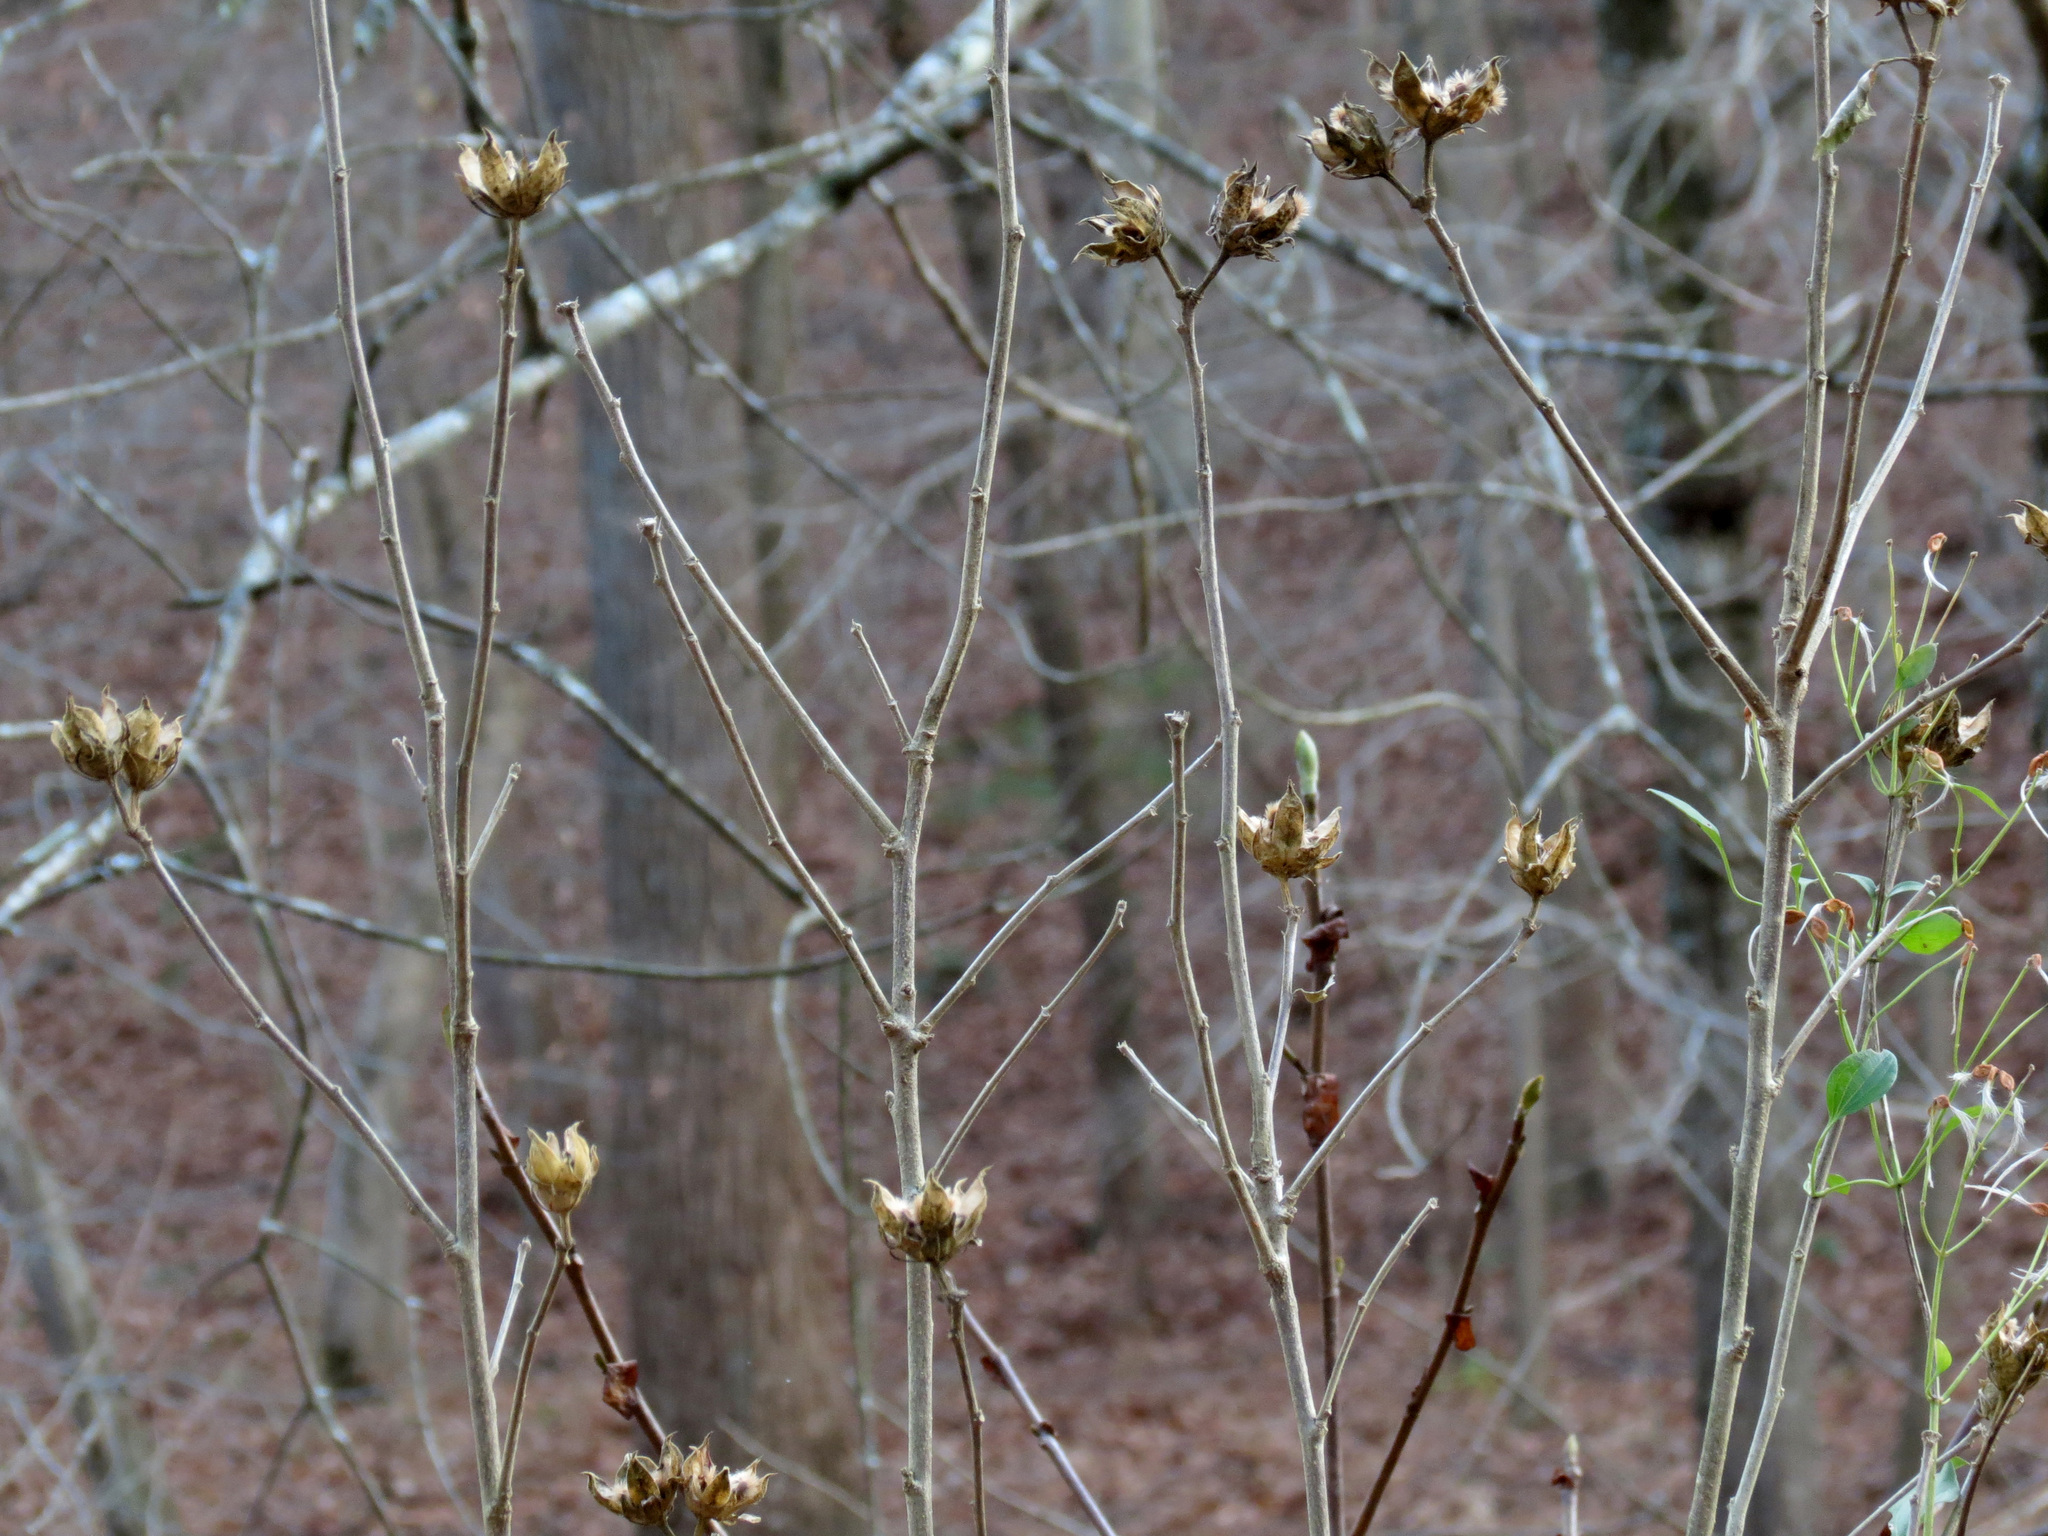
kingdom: Plantae
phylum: Tracheophyta
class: Magnoliopsida
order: Malvales
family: Malvaceae
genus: Hibiscus
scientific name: Hibiscus syriacus
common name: Syrian ketmia
